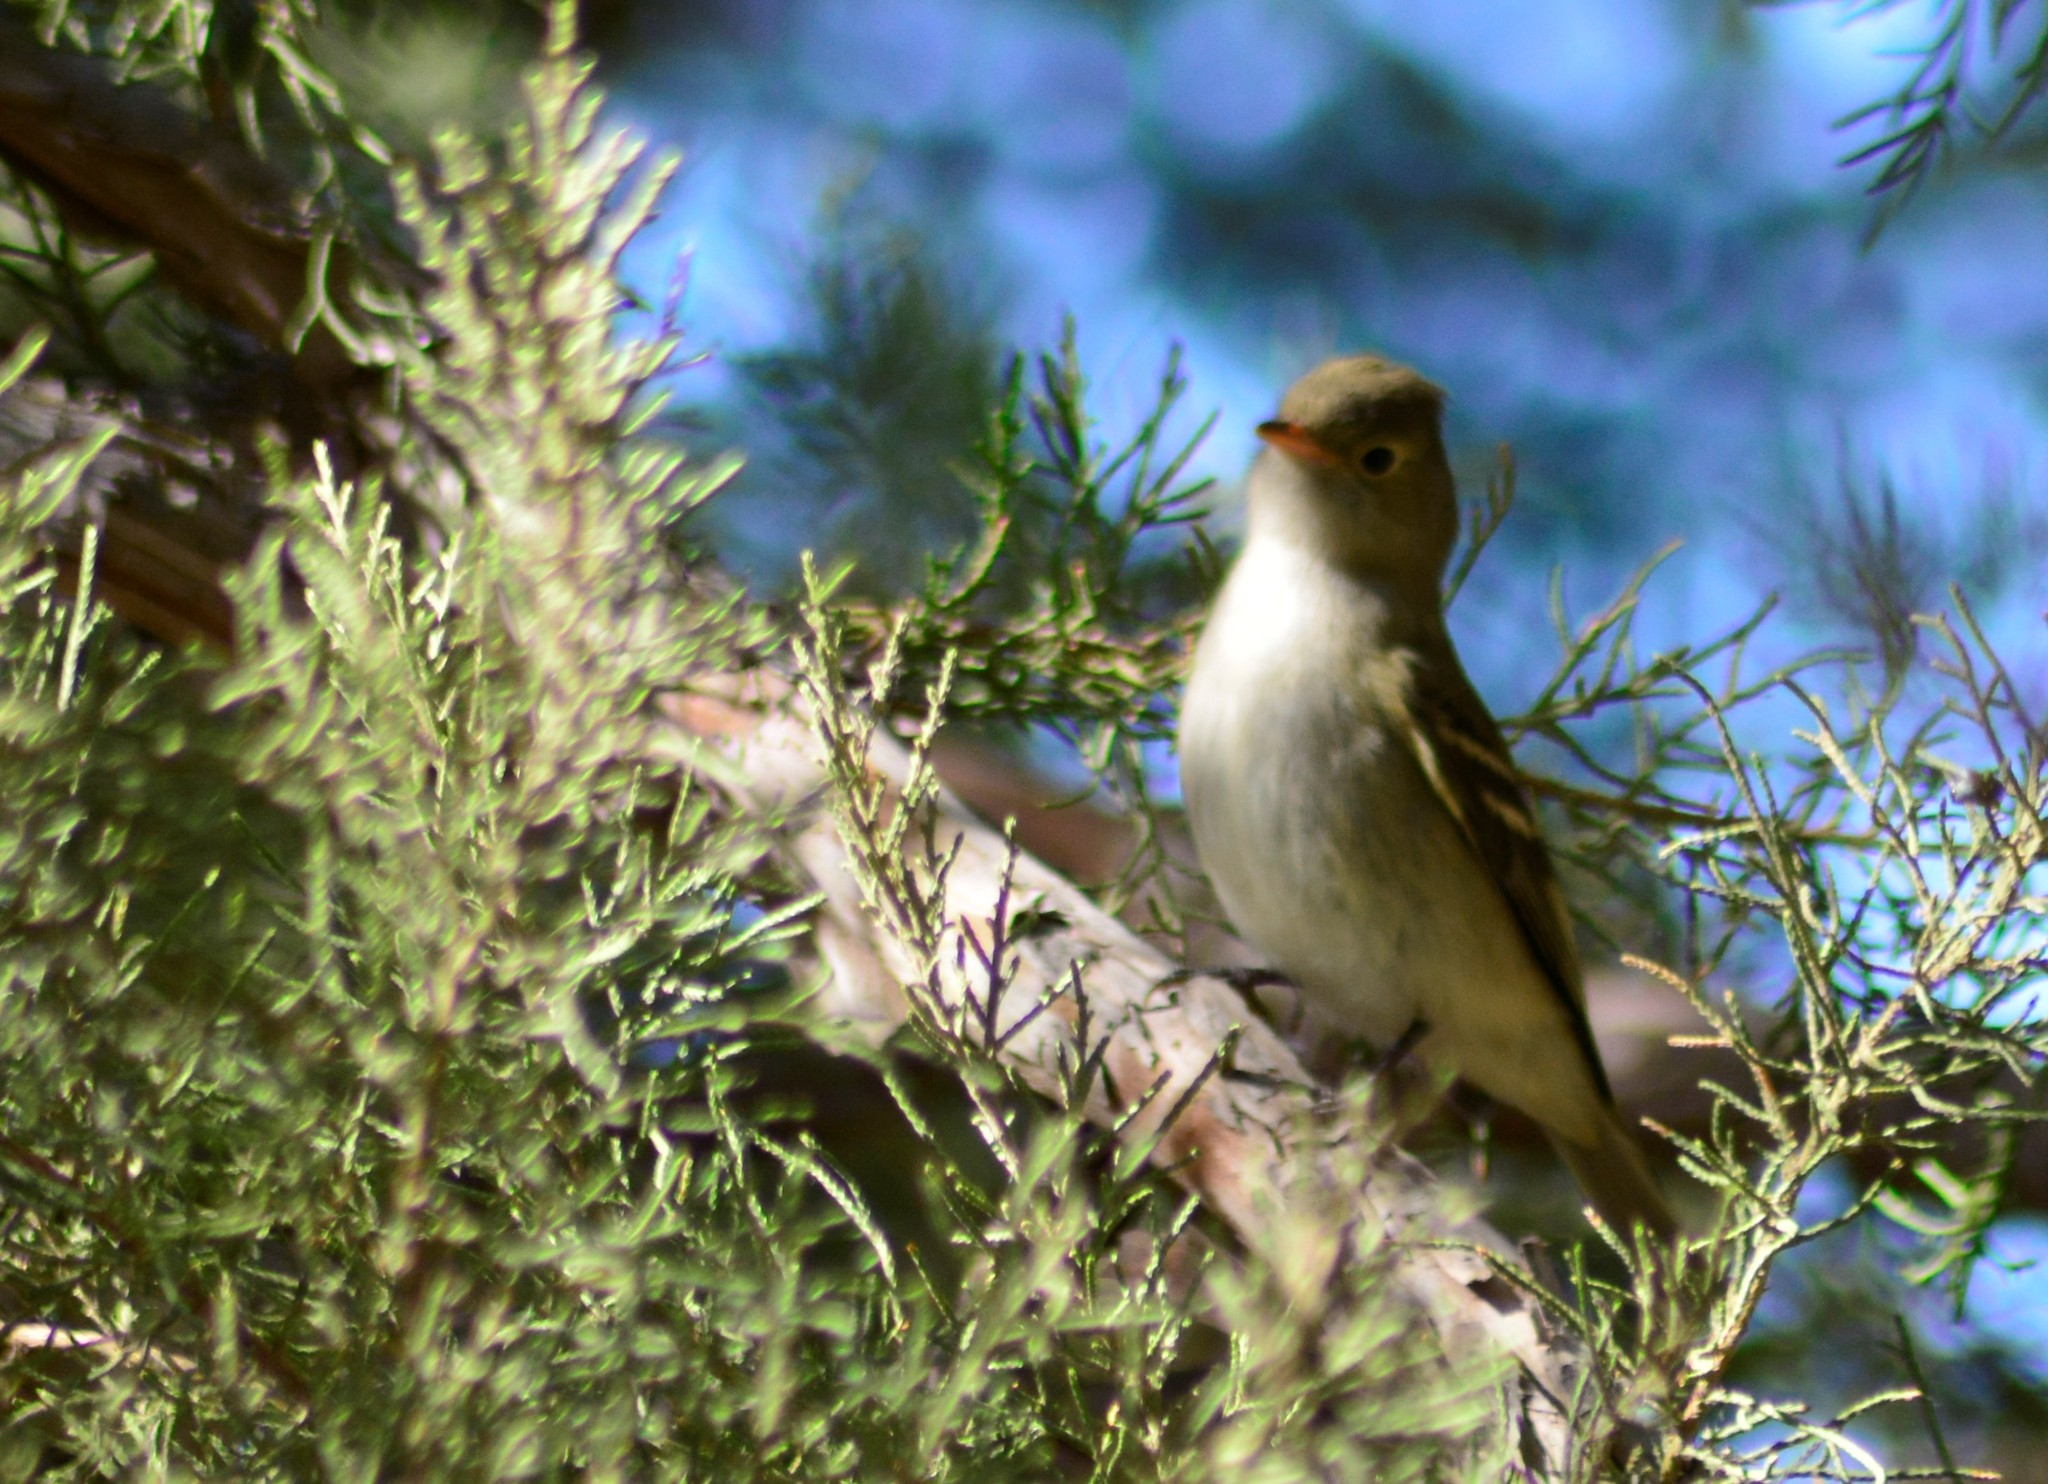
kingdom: Animalia
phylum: Chordata
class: Aves
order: Passeriformes
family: Tyrannidae
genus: Elaenia
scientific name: Elaenia albiceps
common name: White-crested elaenia
